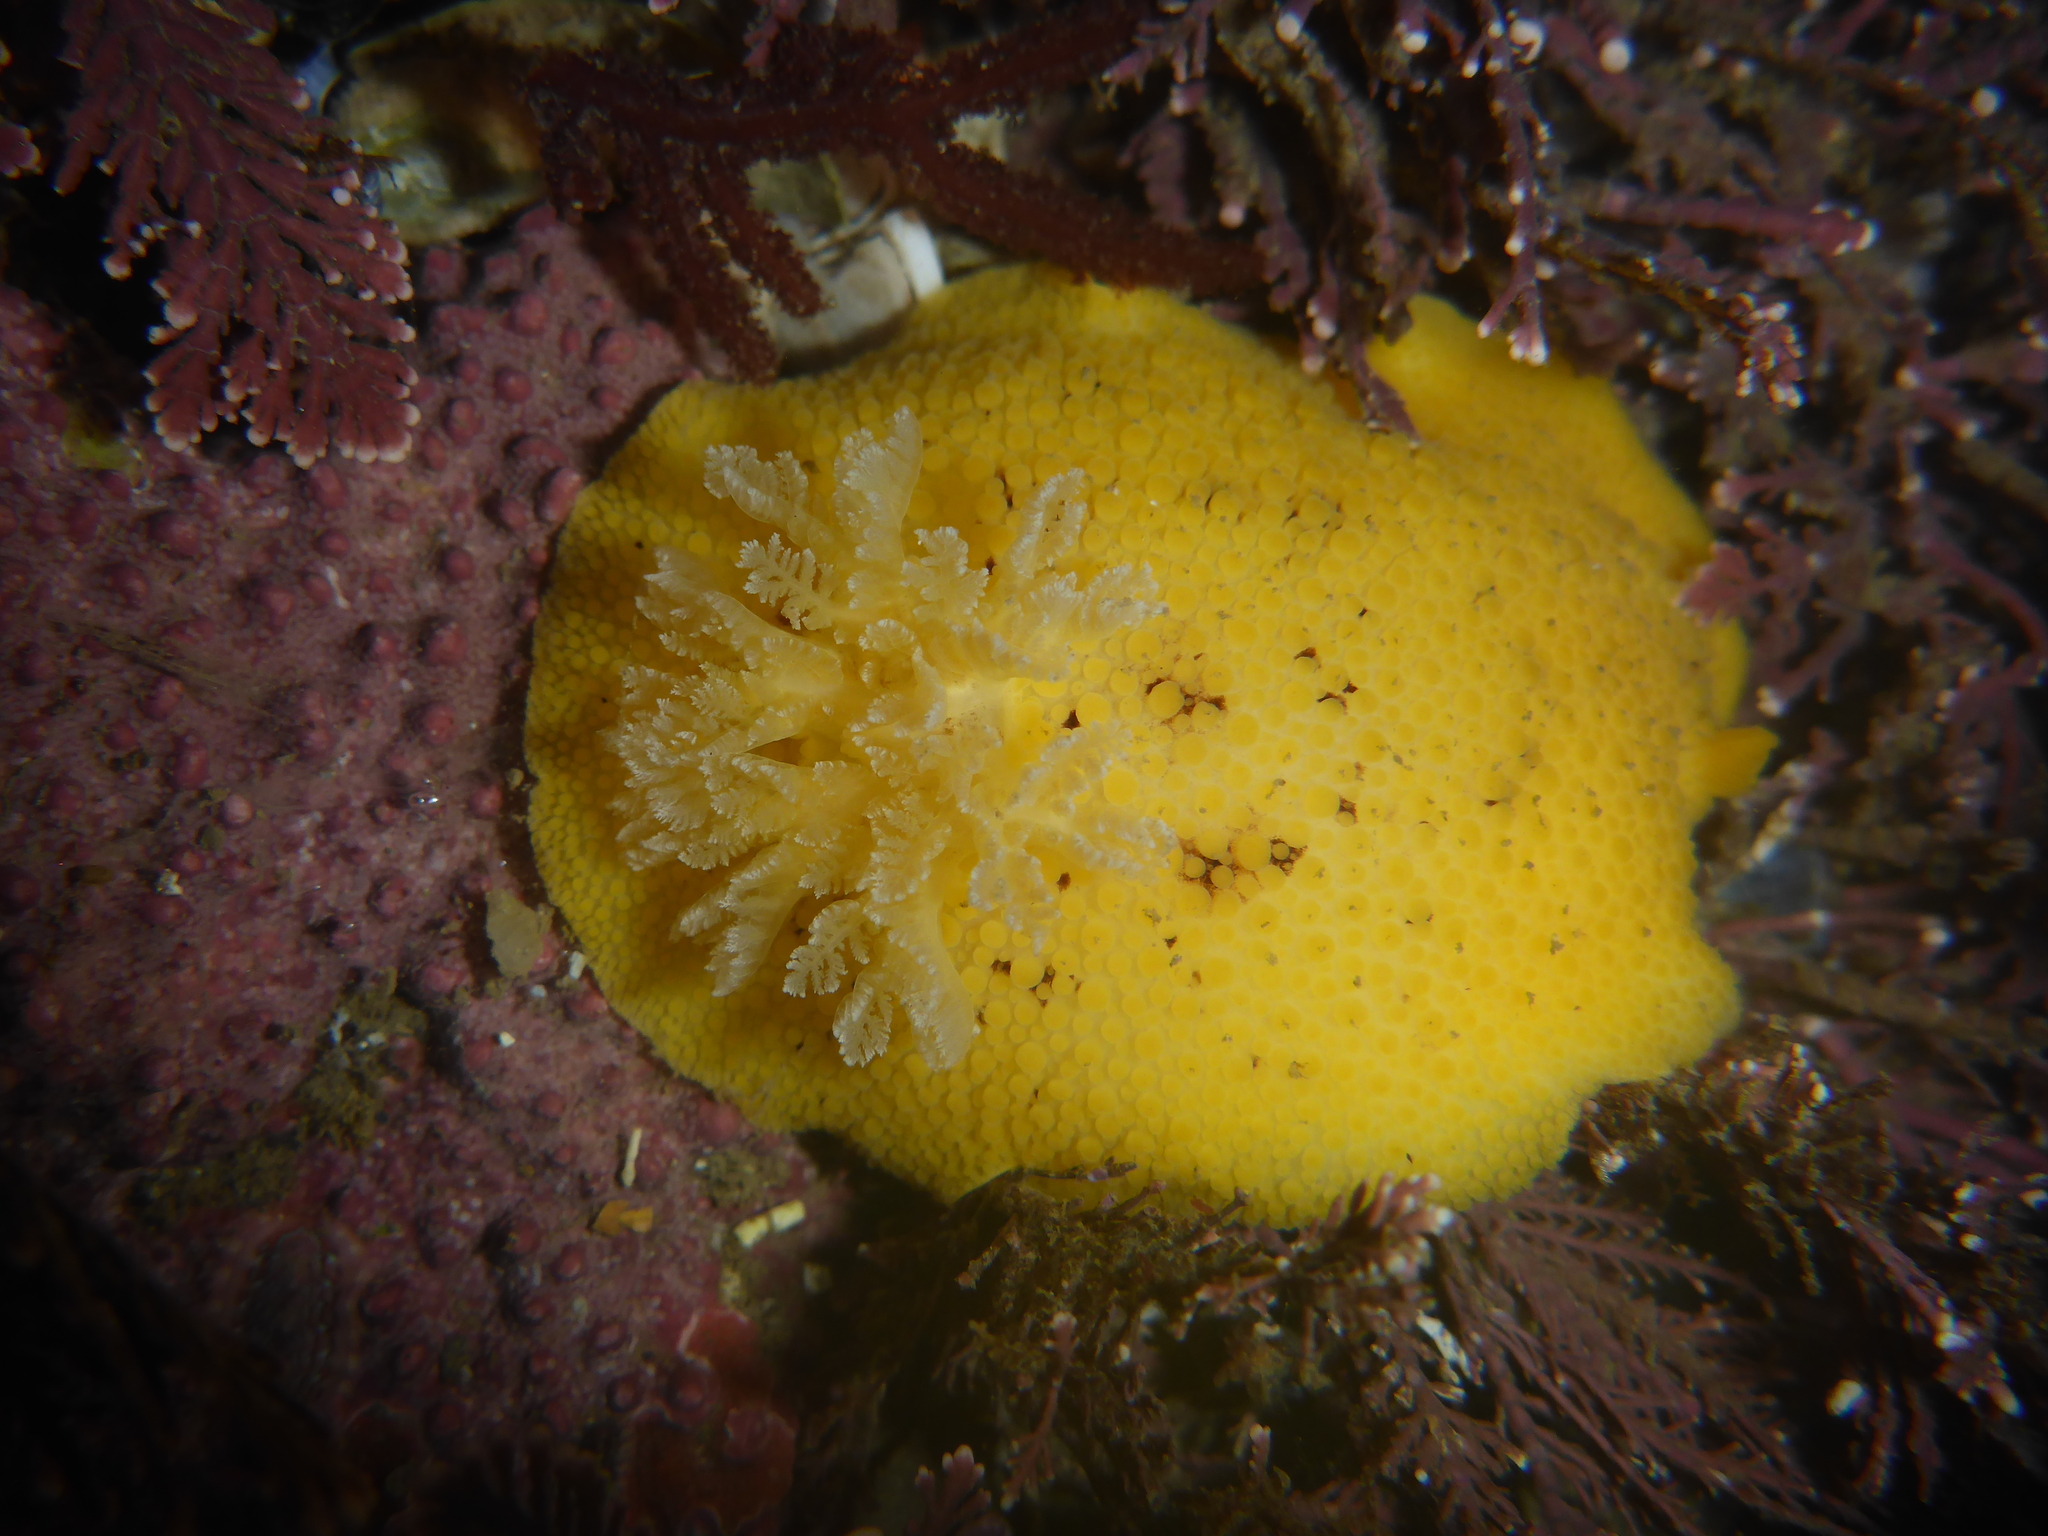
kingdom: Animalia
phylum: Mollusca
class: Gastropoda
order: Nudibranchia
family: Discodorididae
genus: Peltodoris
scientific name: Peltodoris nobilis
